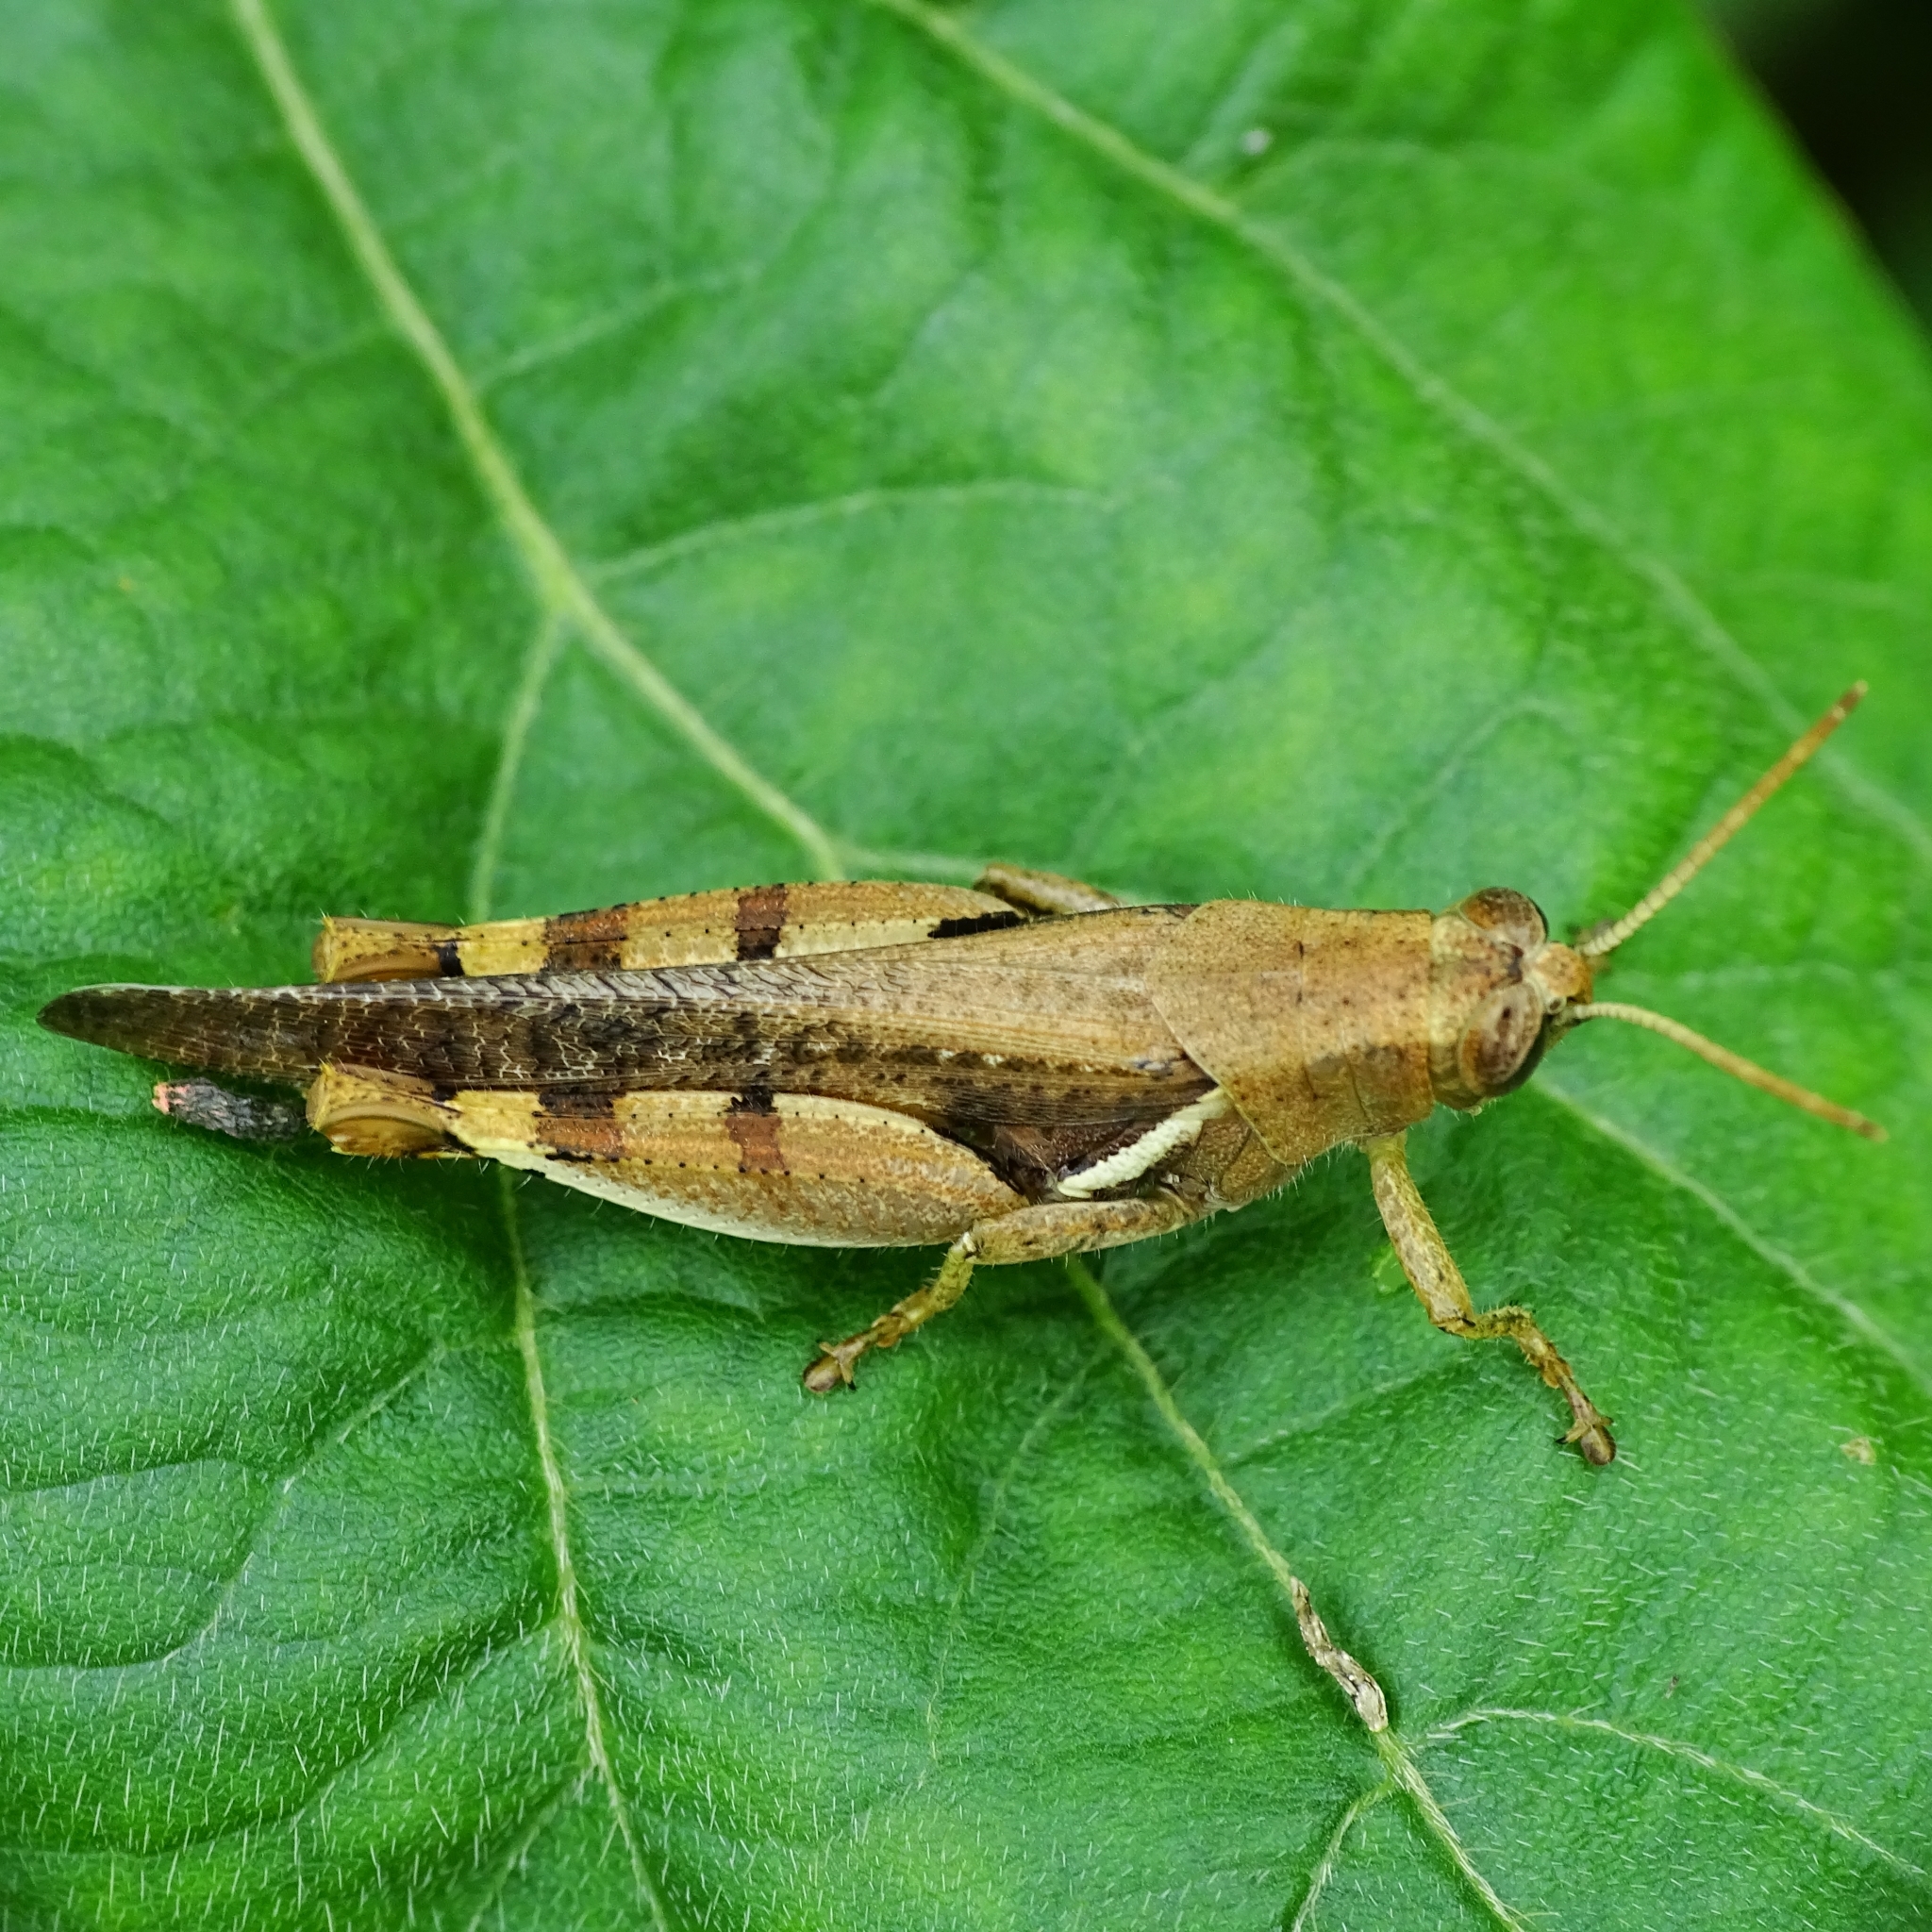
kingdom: Animalia
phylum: Arthropoda
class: Insecta
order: Orthoptera
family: Acrididae
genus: Diabolocatantops
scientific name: Diabolocatantops innotabilis
